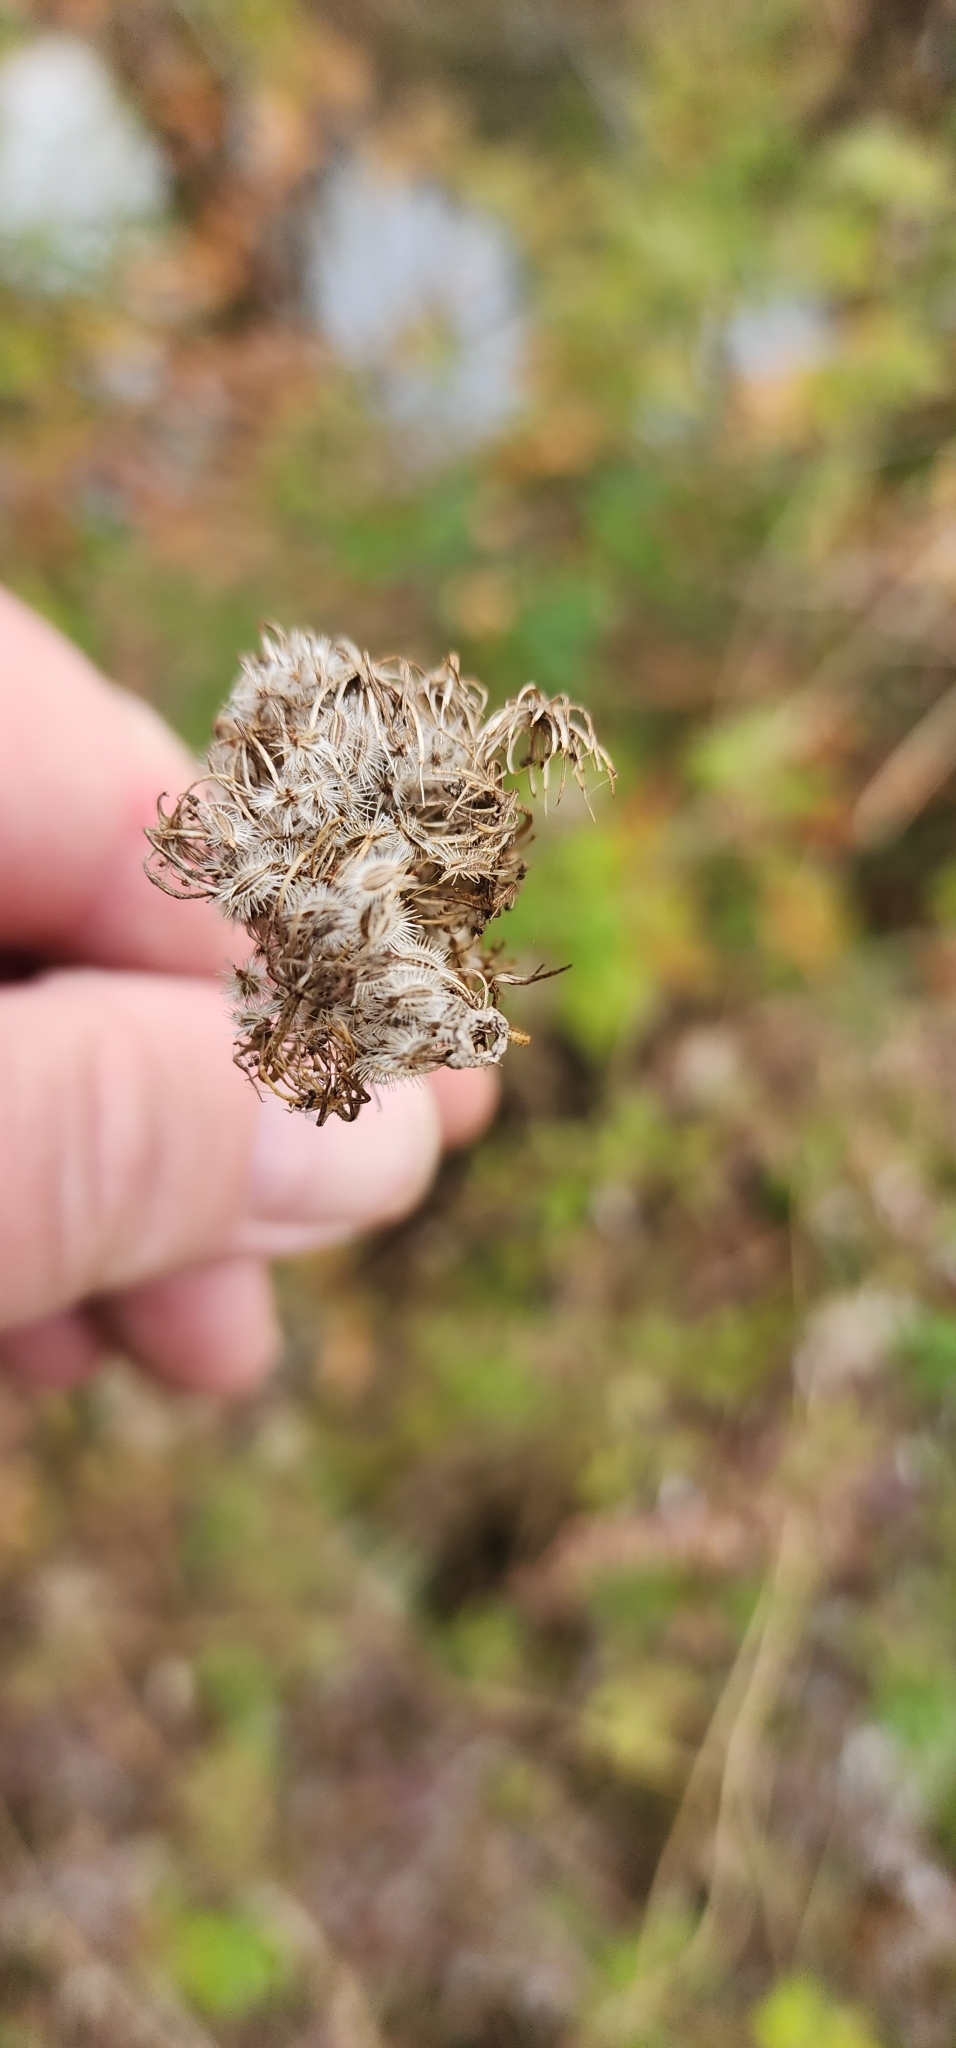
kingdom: Plantae
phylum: Tracheophyta
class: Magnoliopsida
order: Apiales
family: Apiaceae
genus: Daucus
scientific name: Daucus carota
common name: Wild carrot
